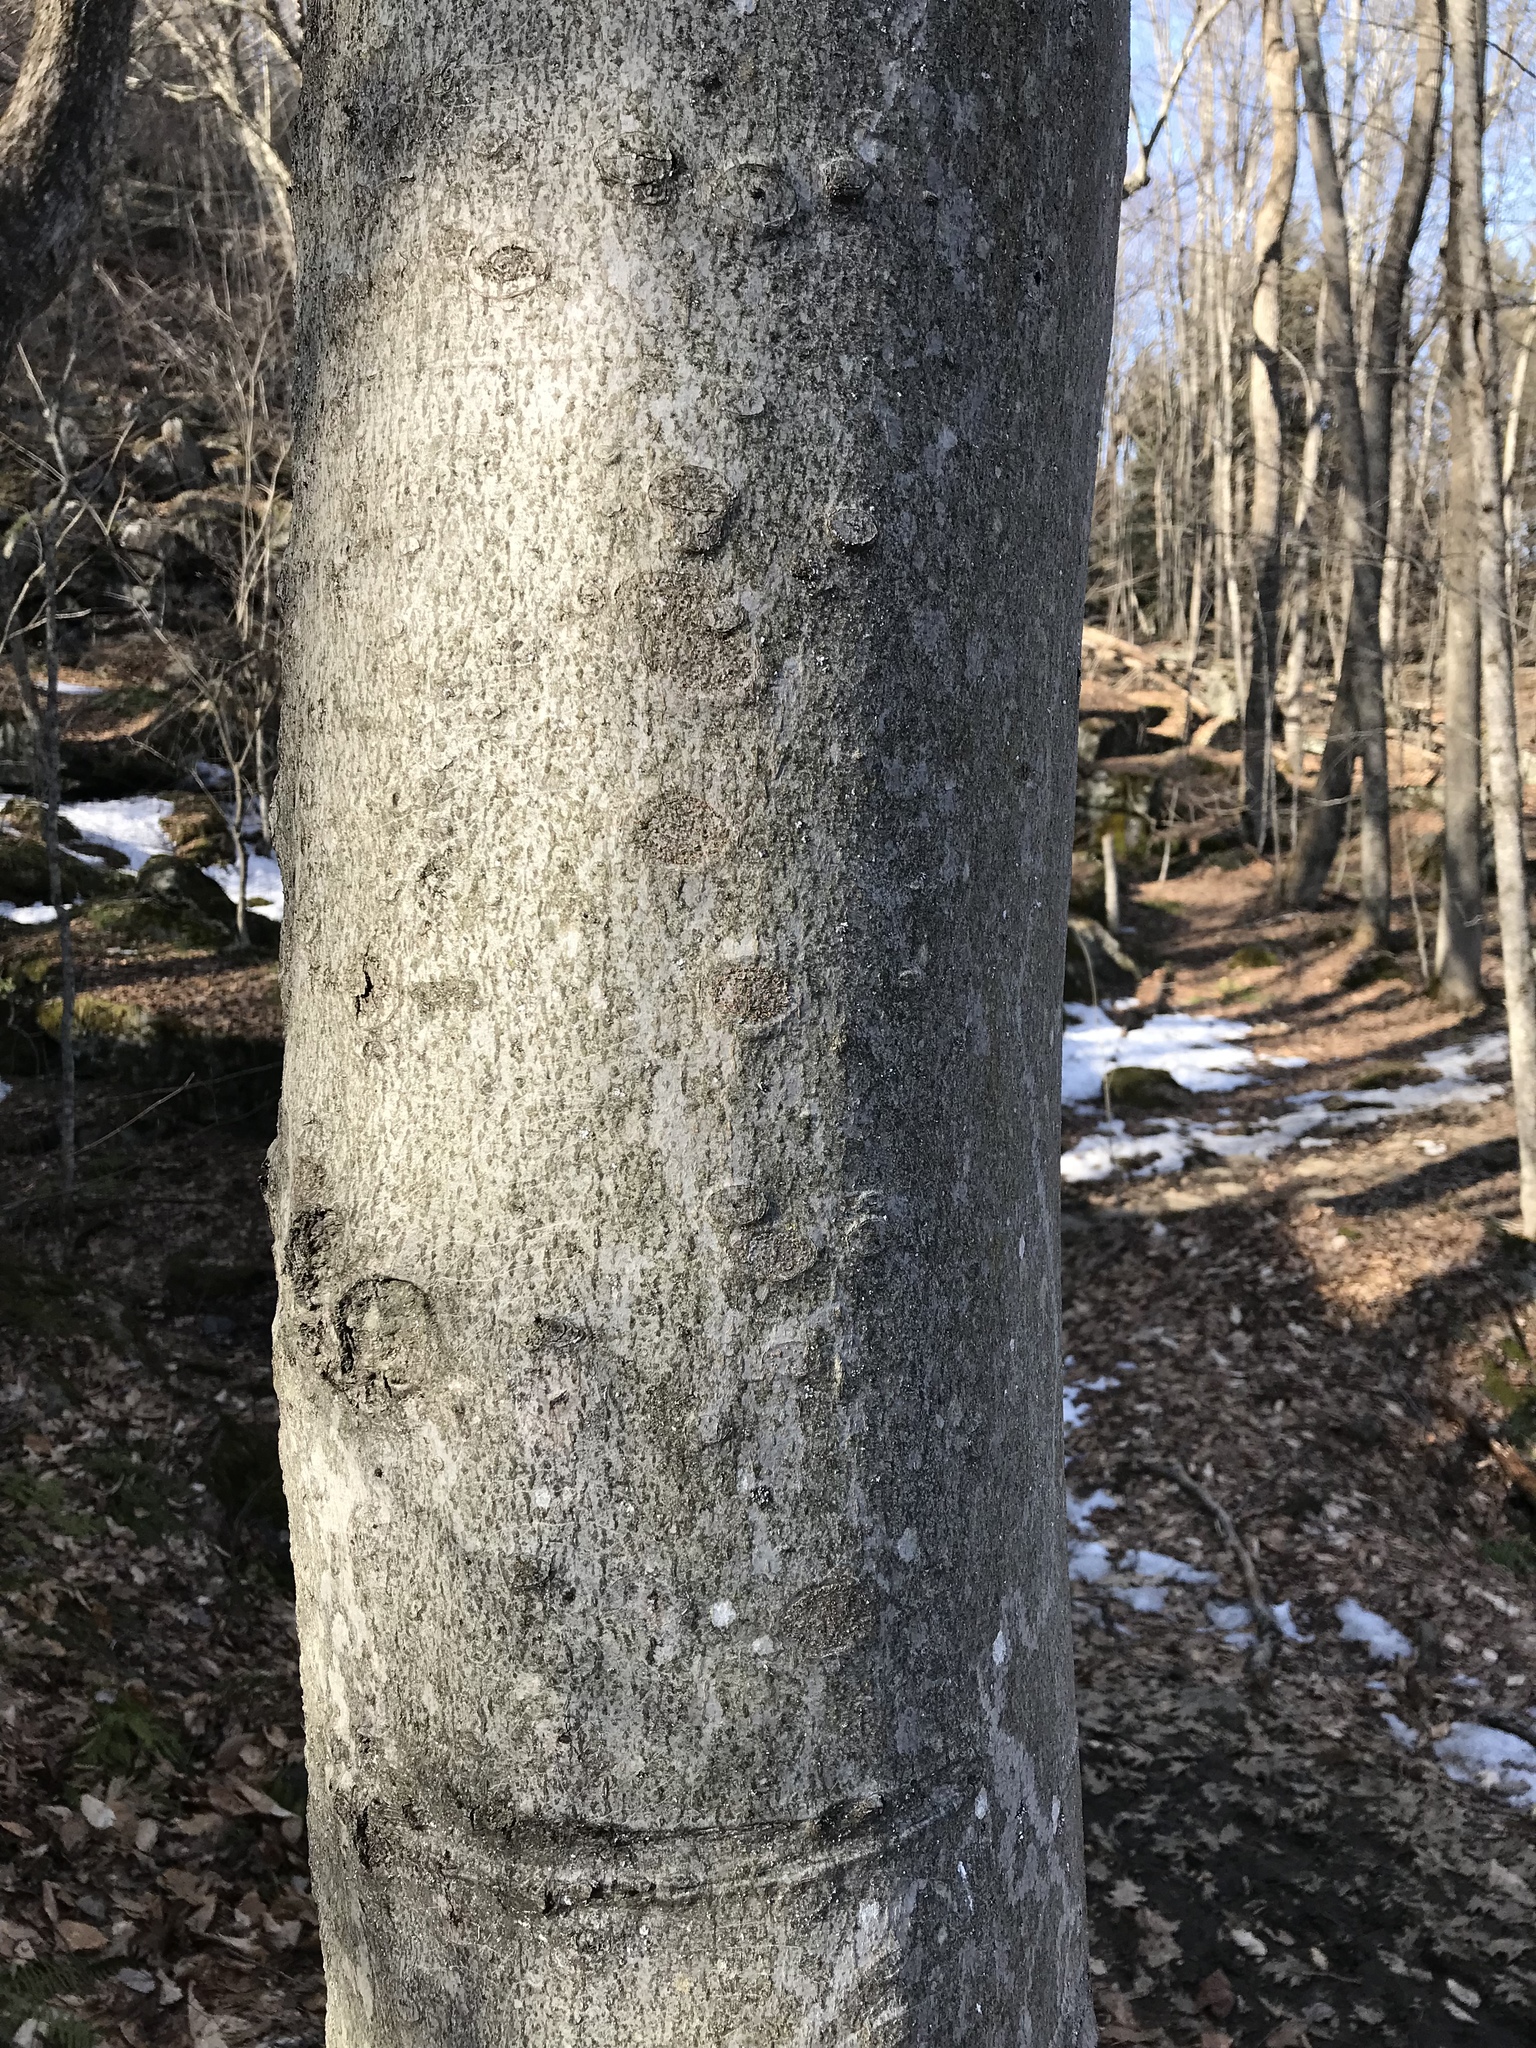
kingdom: Plantae
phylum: Tracheophyta
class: Magnoliopsida
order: Fagales
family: Fagaceae
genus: Fagus
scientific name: Fagus grandifolia
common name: American beech
